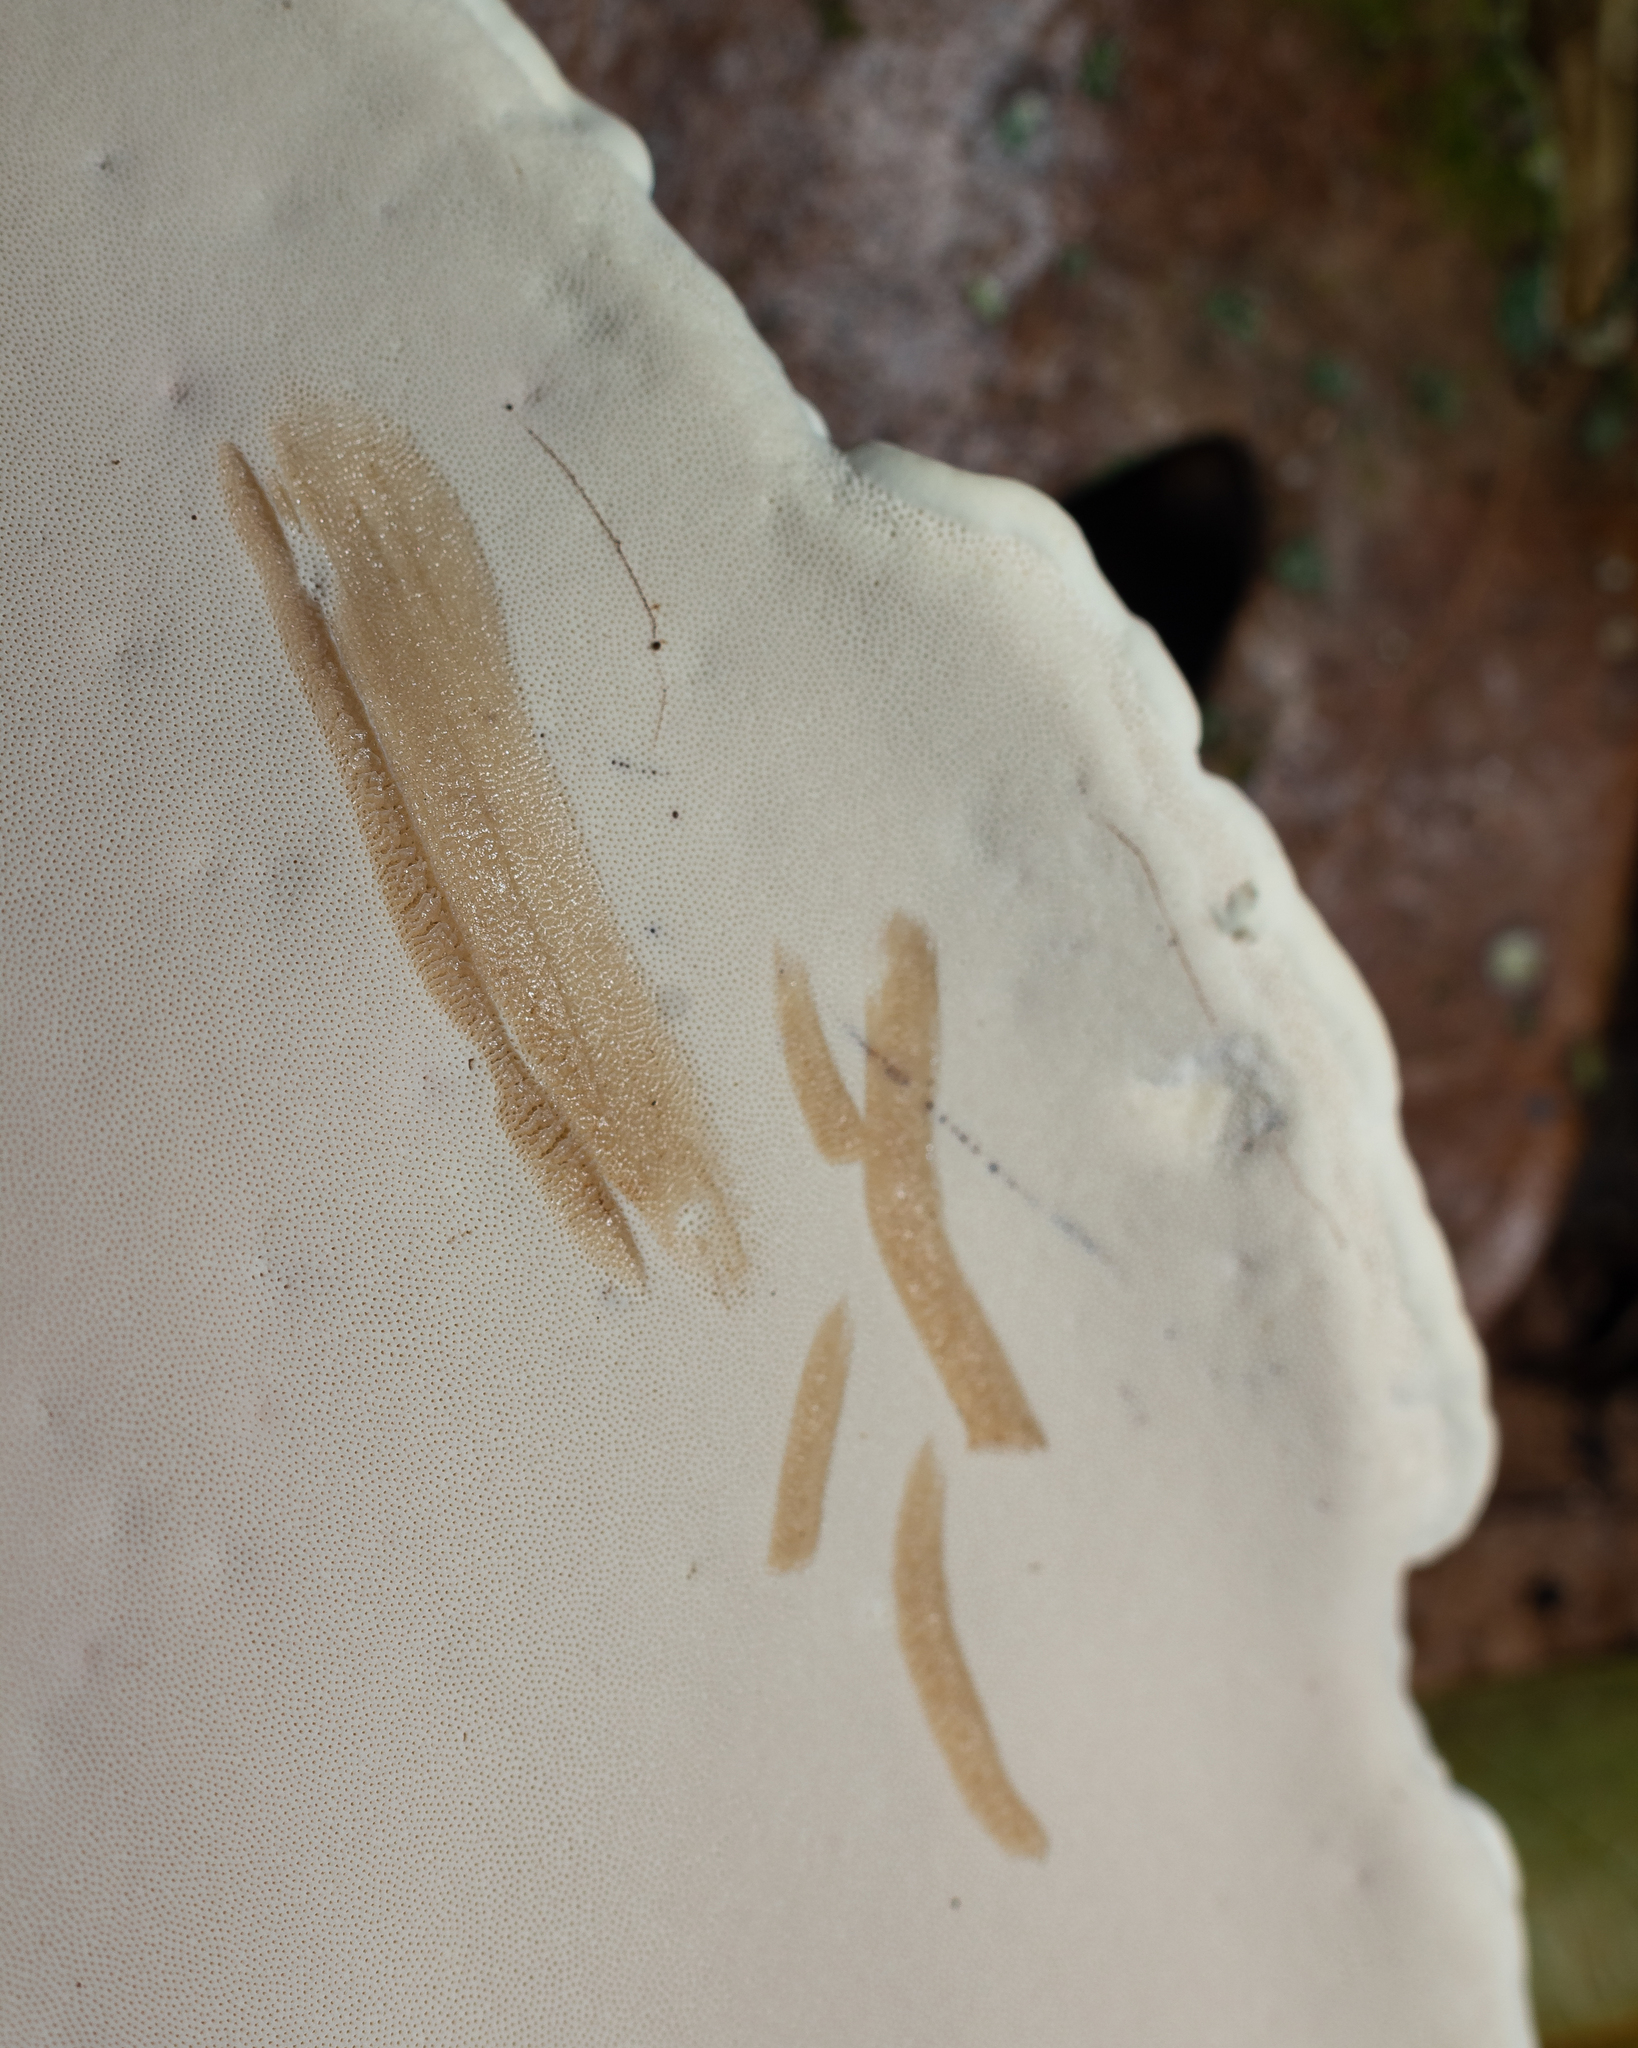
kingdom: Fungi
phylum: Basidiomycota
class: Agaricomycetes
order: Polyporales
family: Ganodermataceae
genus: Sanguinoderma
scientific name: Sanguinoderma rude
